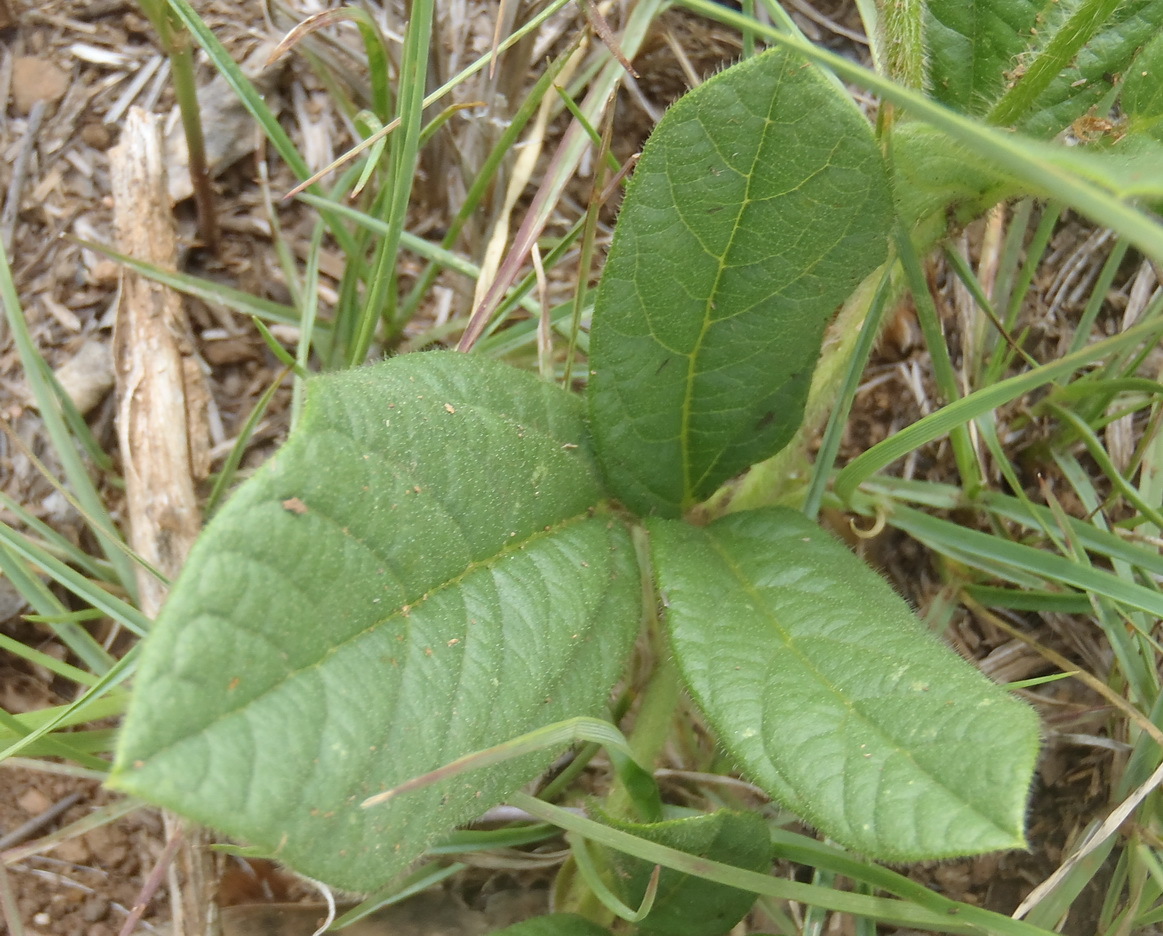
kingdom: Plantae
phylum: Tracheophyta
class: Magnoliopsida
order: Fabales
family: Fabaceae
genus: Eriosema
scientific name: Eriosema cordatum
